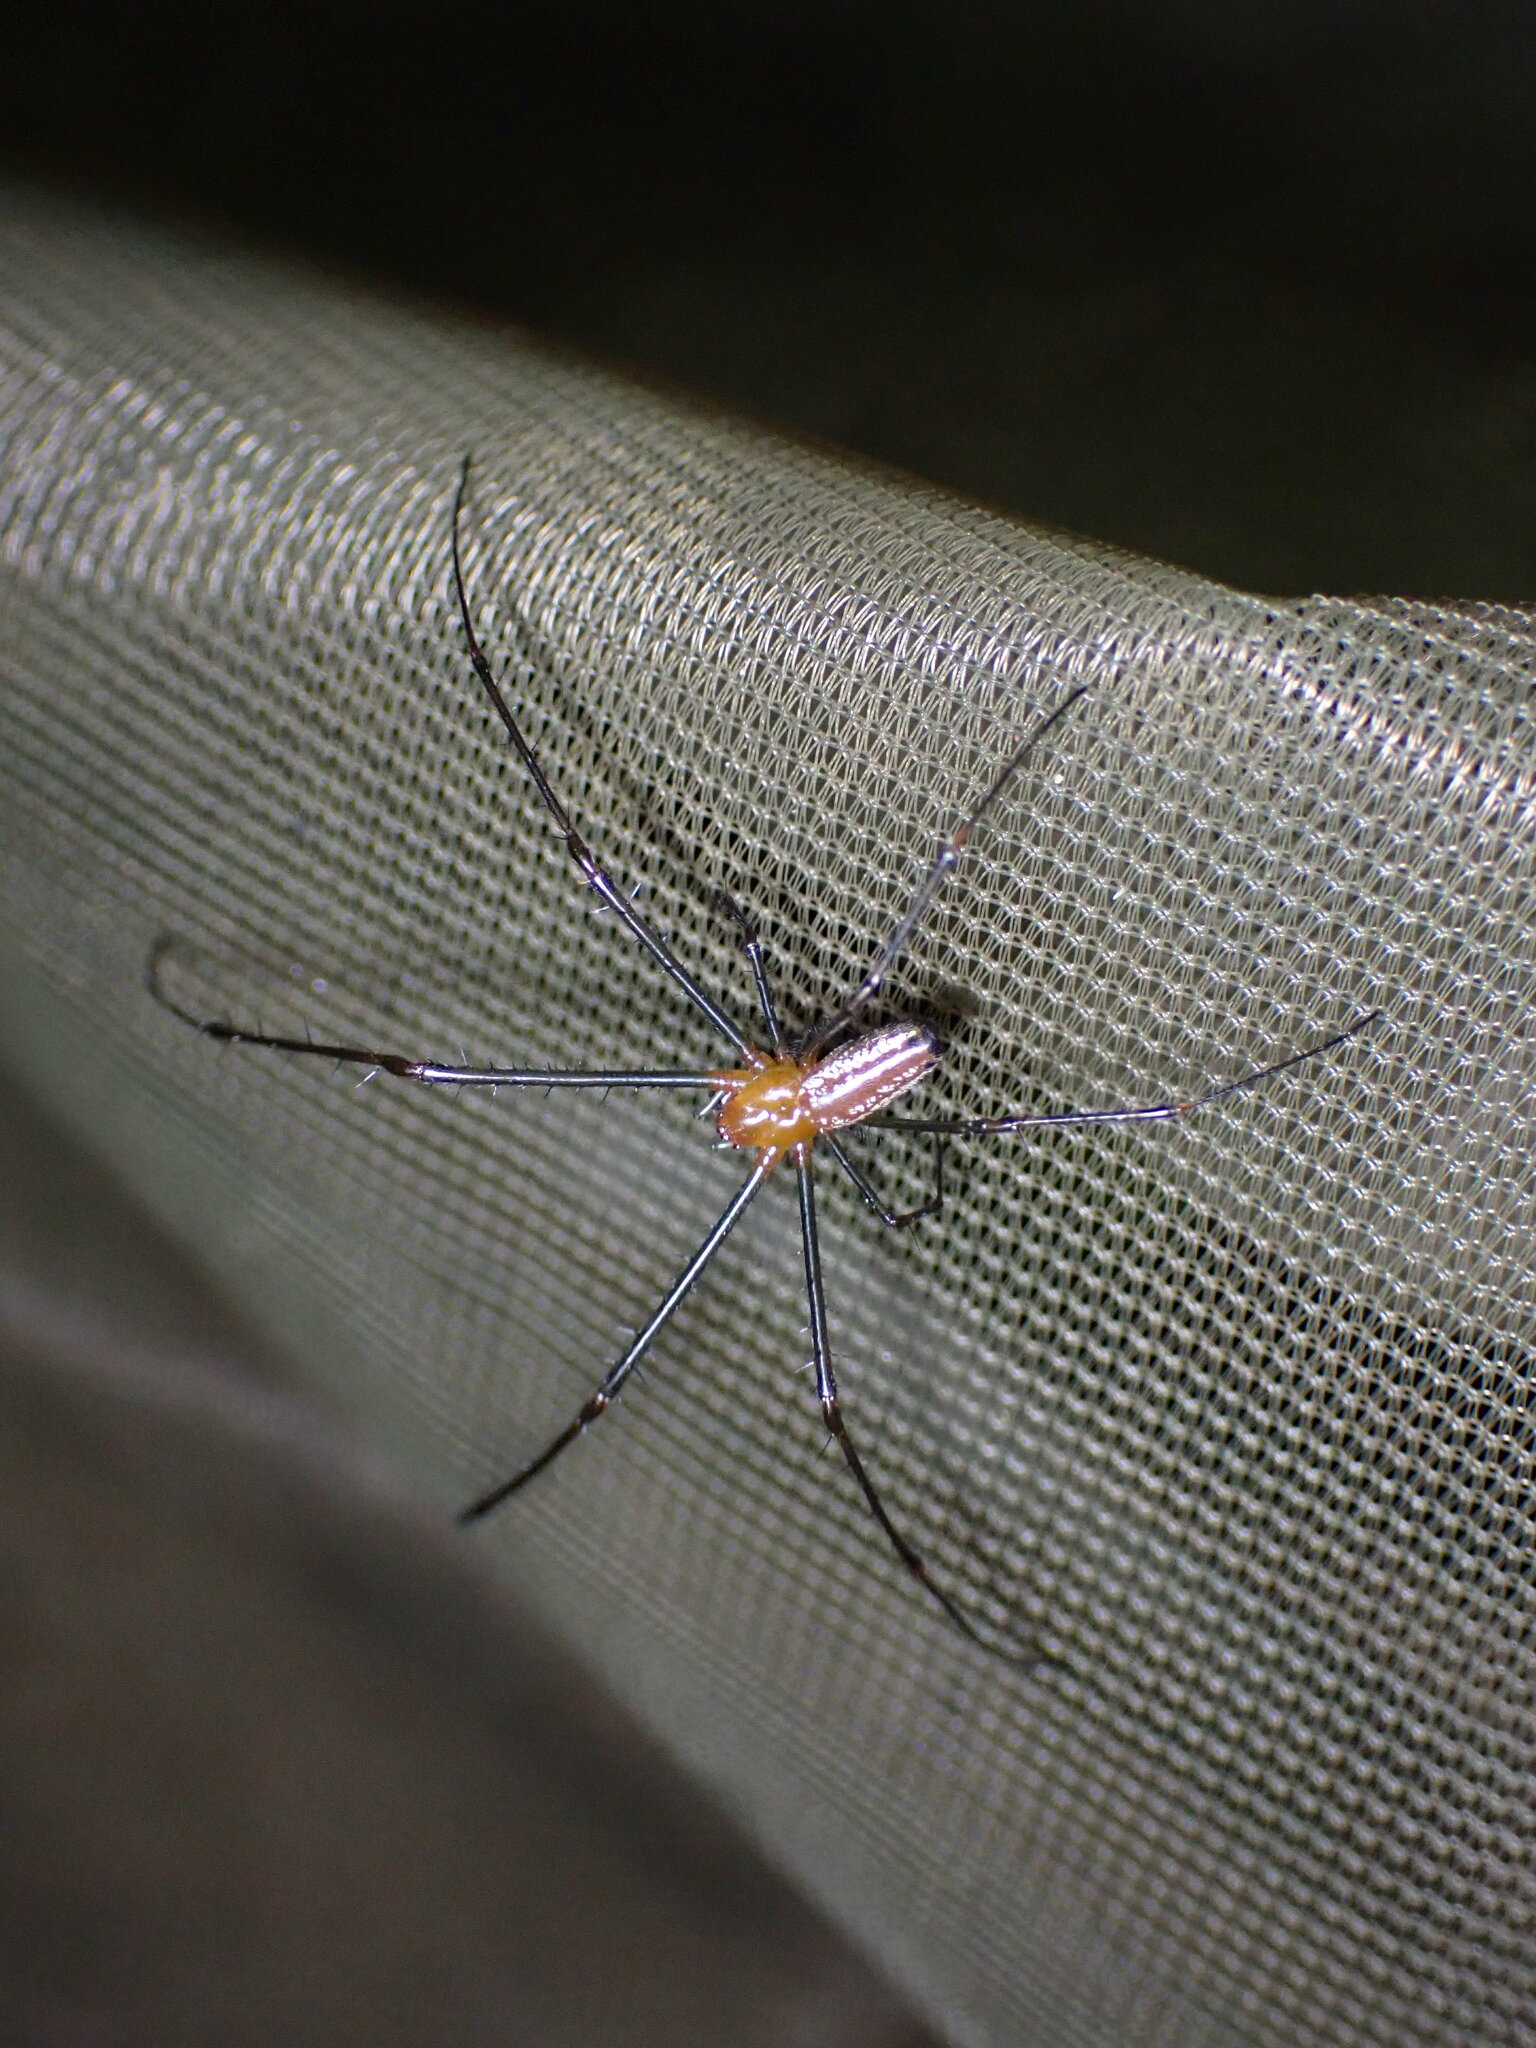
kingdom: Animalia
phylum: Arthropoda
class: Arachnida
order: Araneae
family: Tetragnathidae
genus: Leucauge
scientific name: Leucauge tessellata
